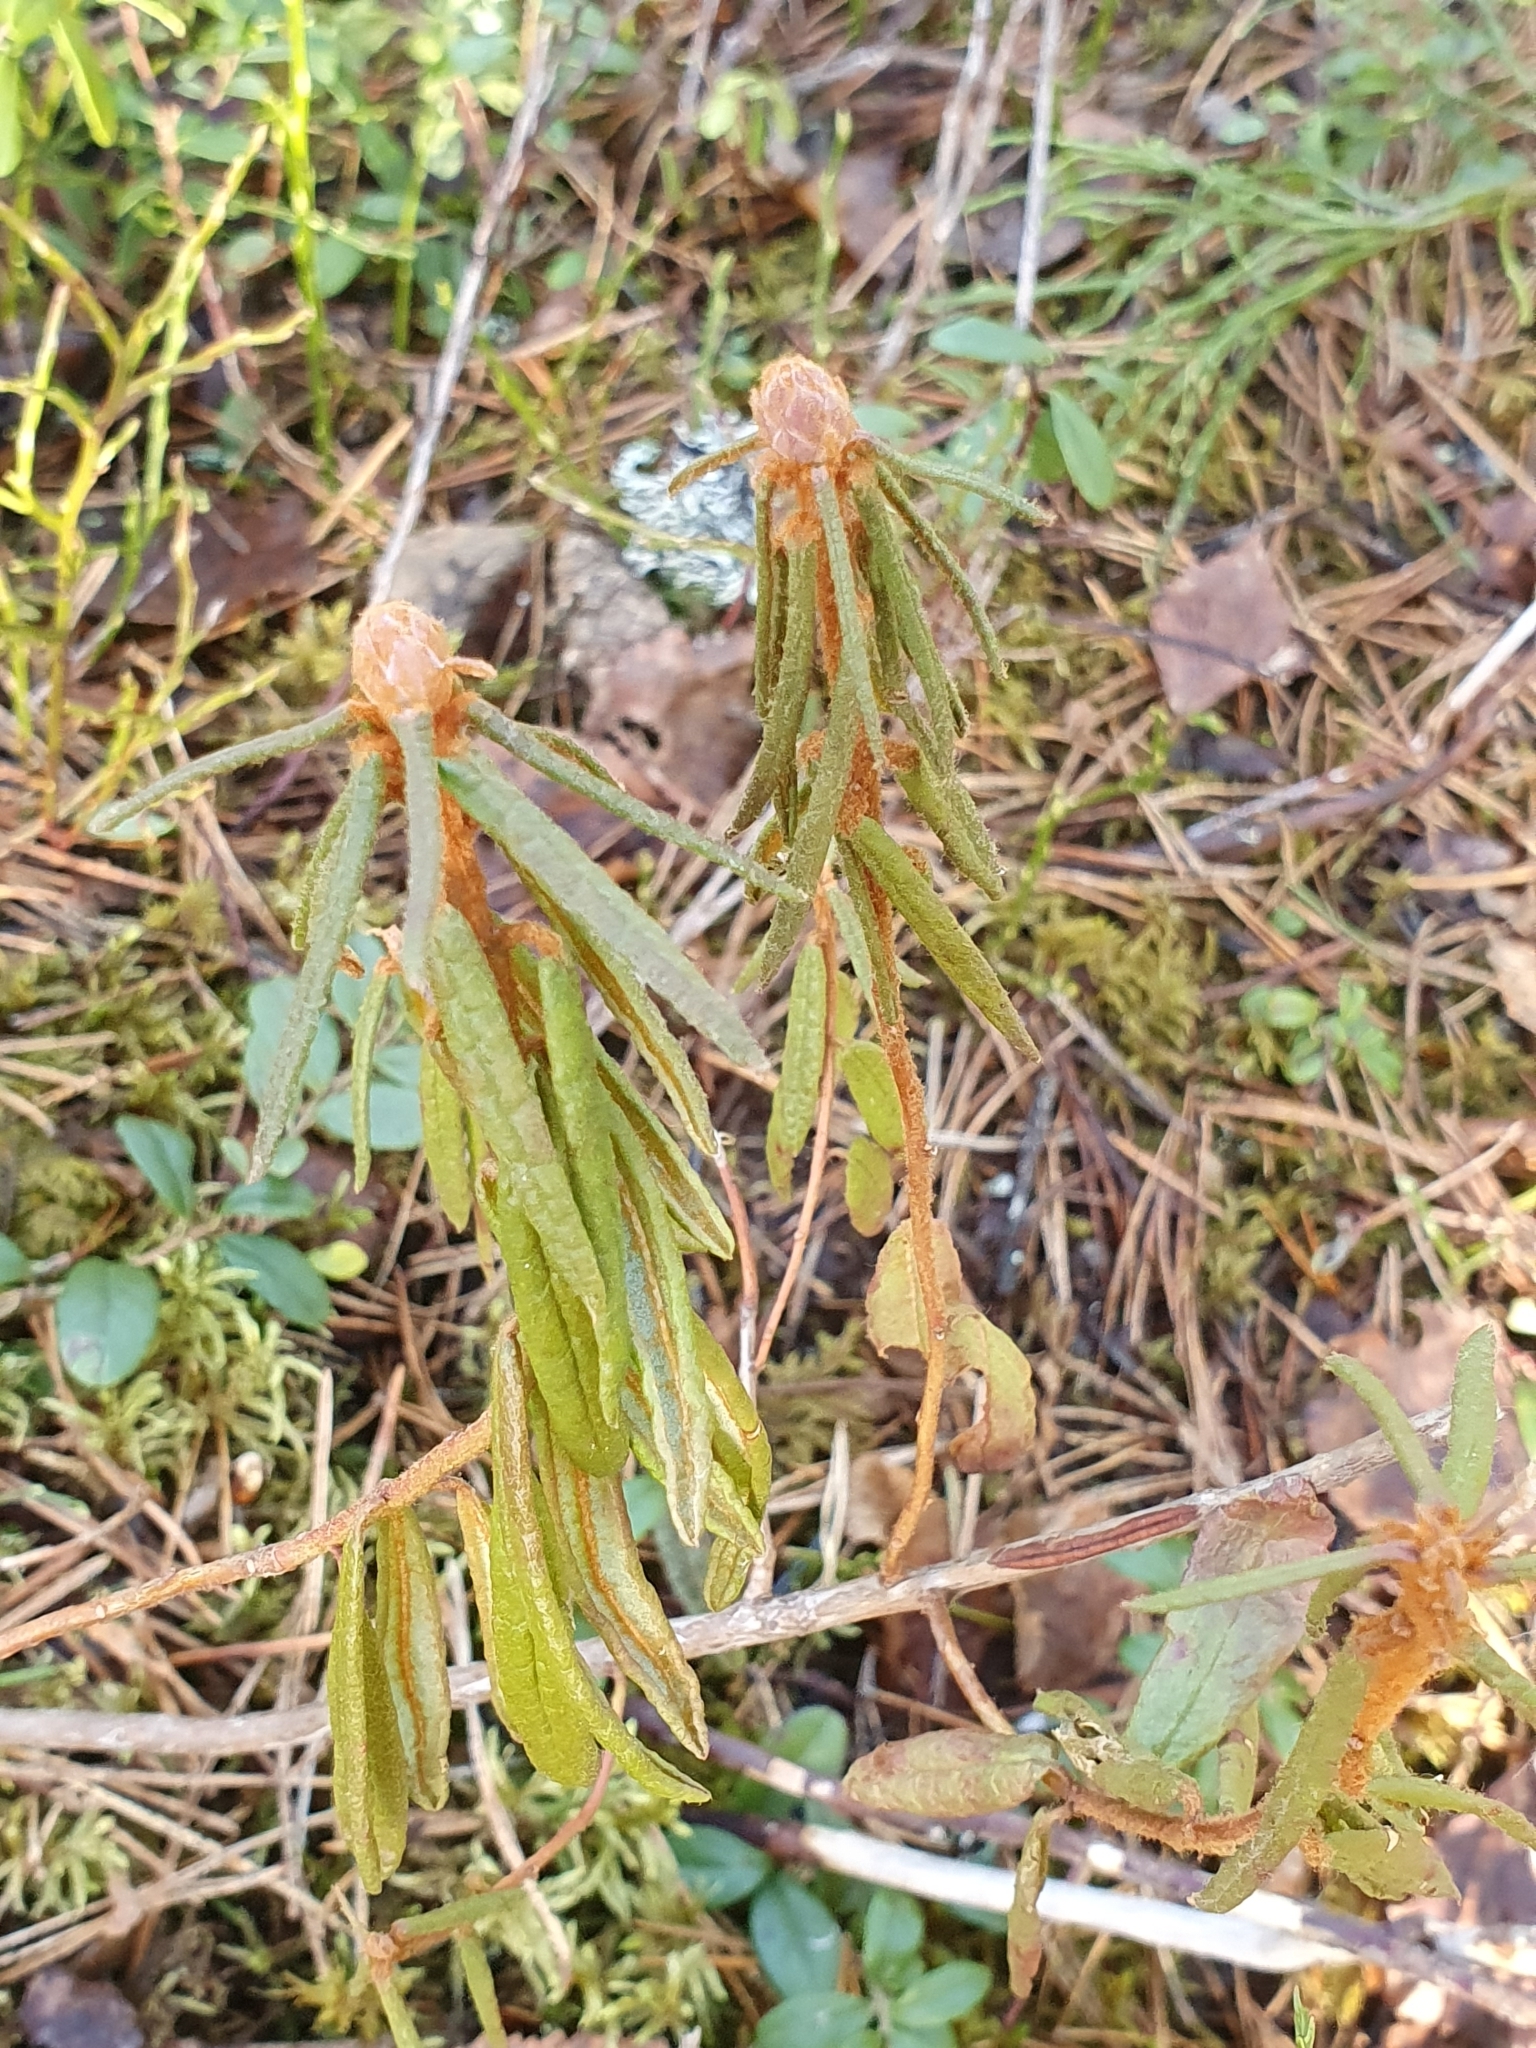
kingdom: Plantae
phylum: Tracheophyta
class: Magnoliopsida
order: Ericales
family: Ericaceae
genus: Rhododendron
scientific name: Rhododendron tomentosum
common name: Marsh labrador tea
